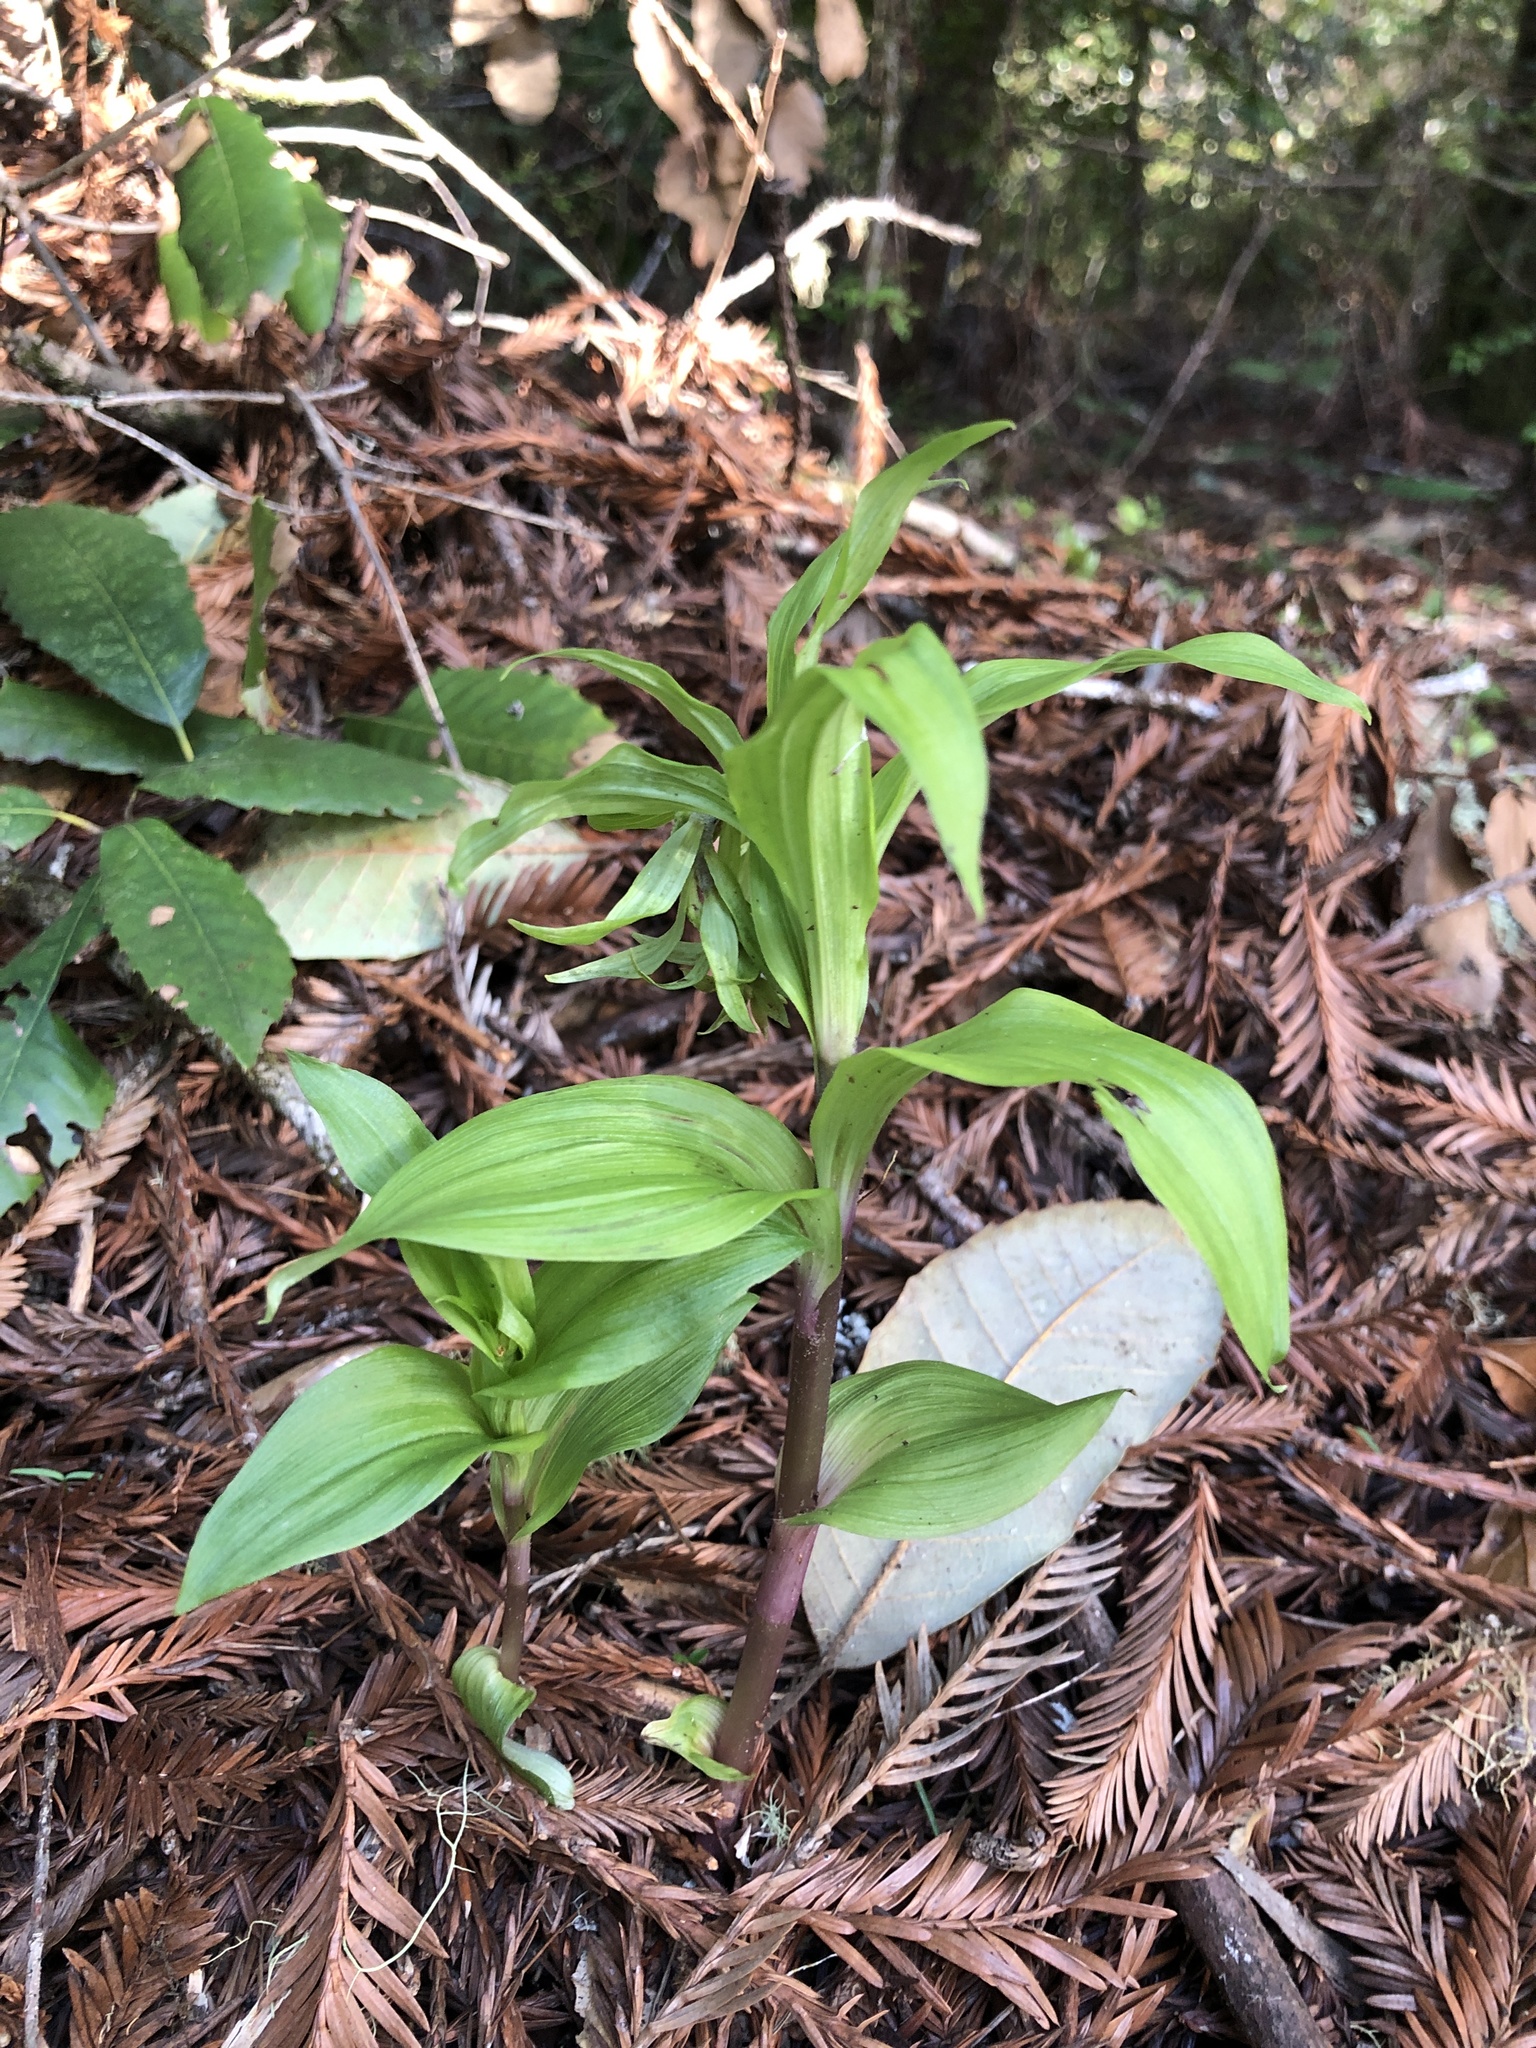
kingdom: Plantae
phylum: Tracheophyta
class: Liliopsida
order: Asparagales
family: Orchidaceae
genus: Epipactis
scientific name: Epipactis helleborine
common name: Broad-leaved helleborine
